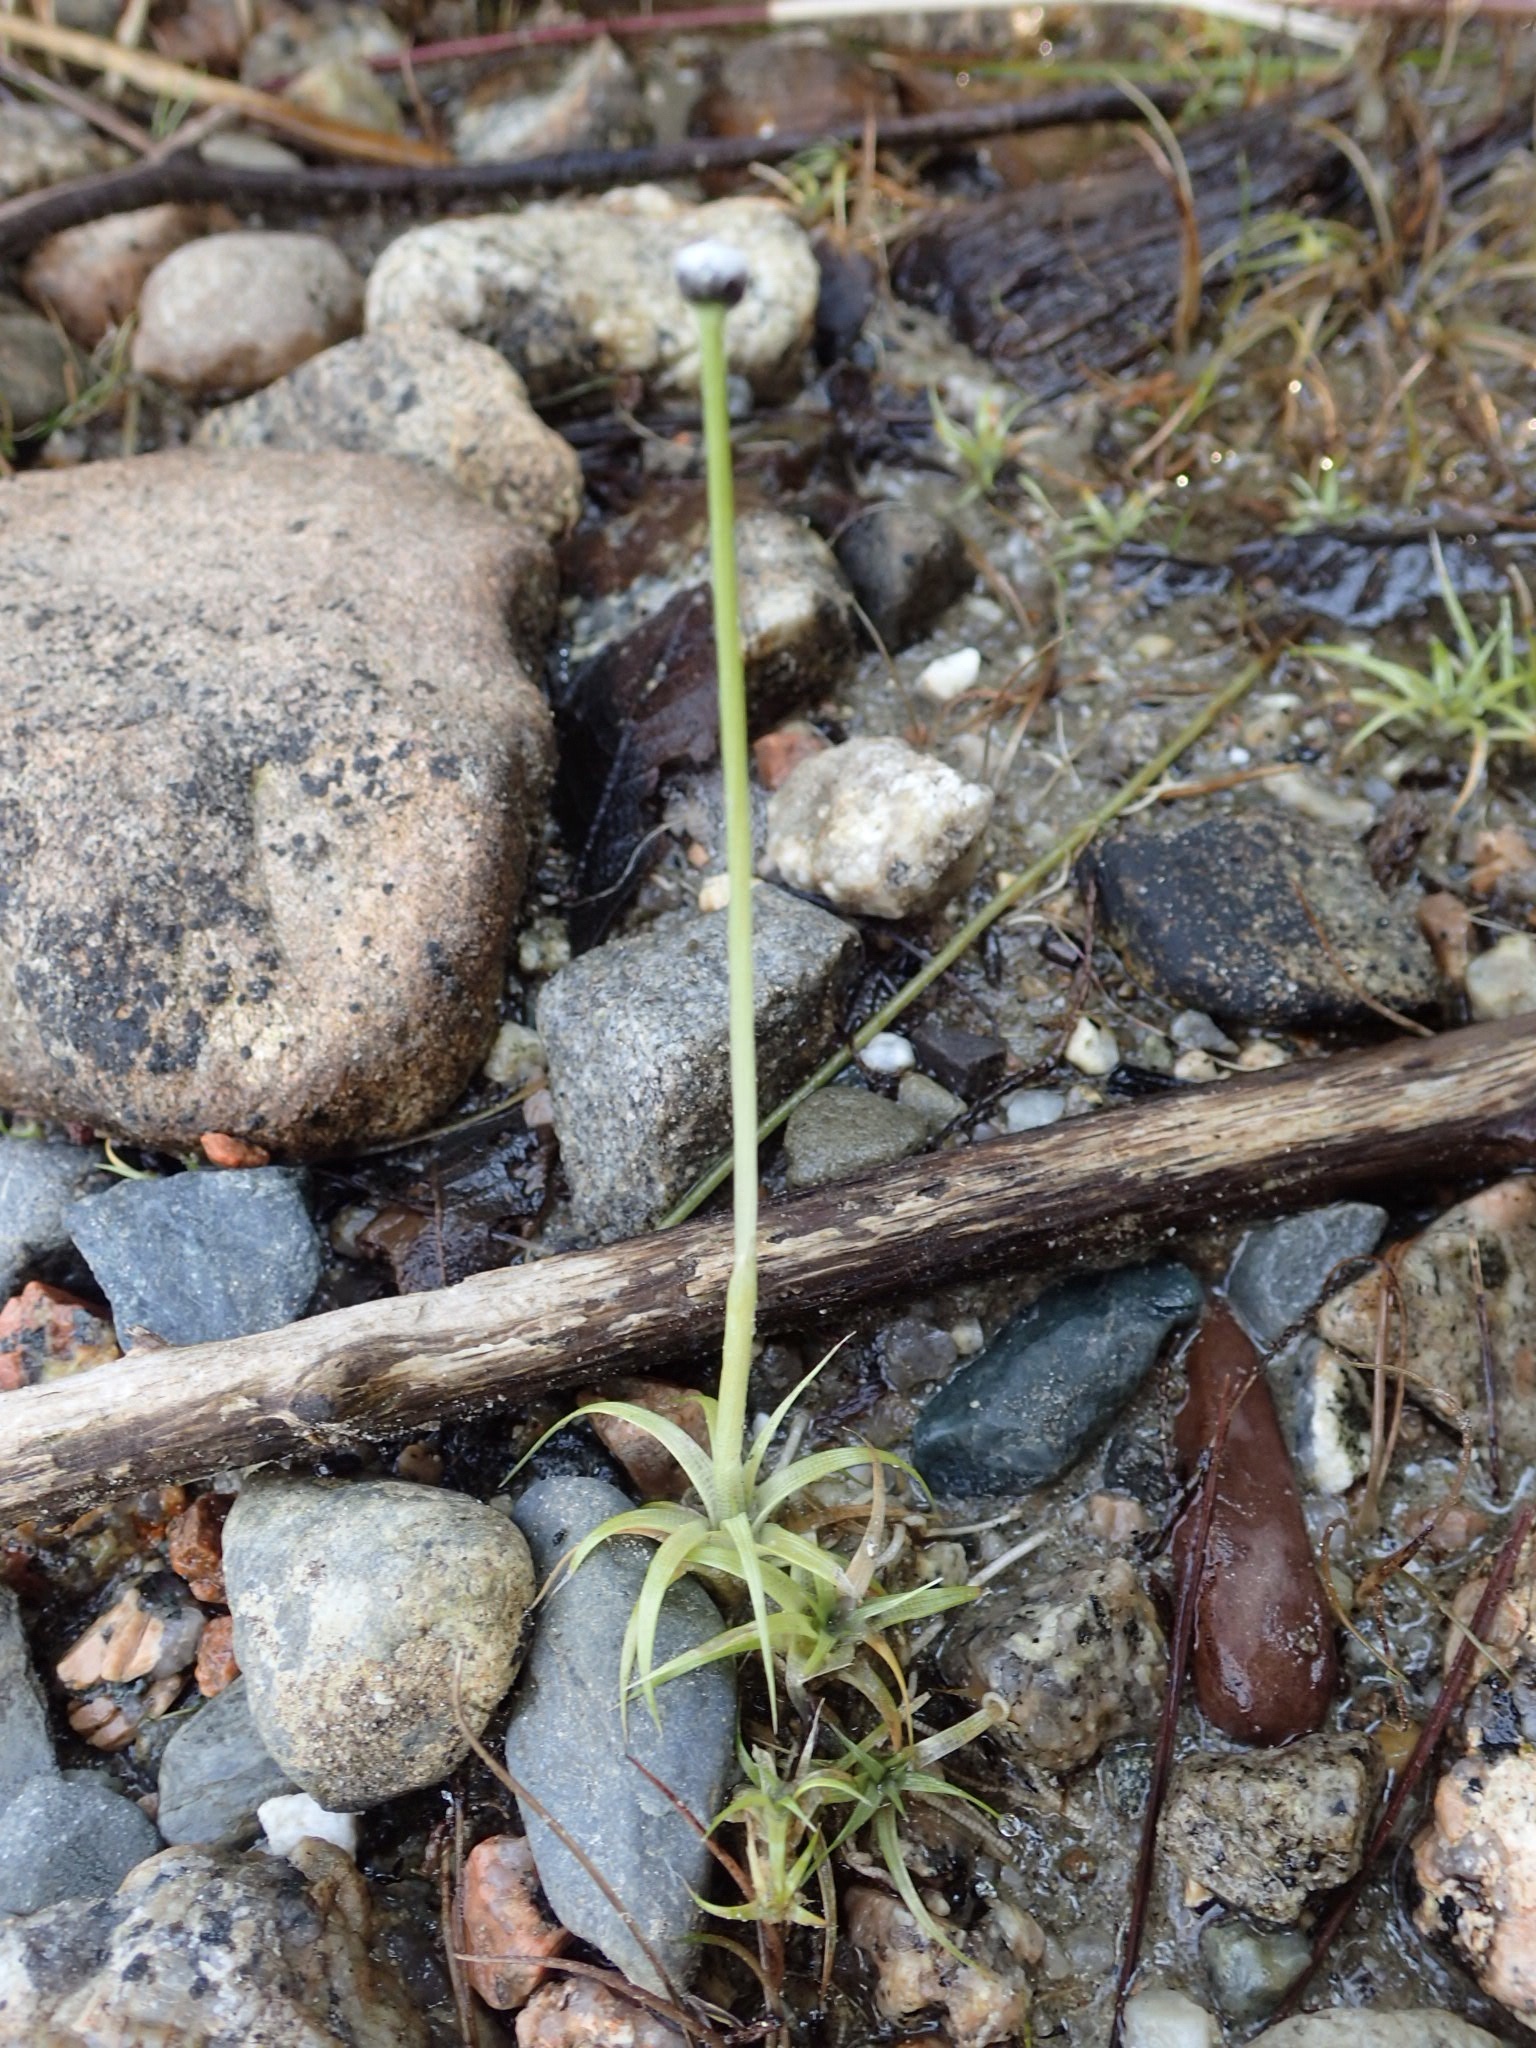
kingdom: Plantae
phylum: Tracheophyta
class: Liliopsida
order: Poales
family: Eriocaulaceae
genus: Eriocaulon
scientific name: Eriocaulon aquaticum
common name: Pipewort
